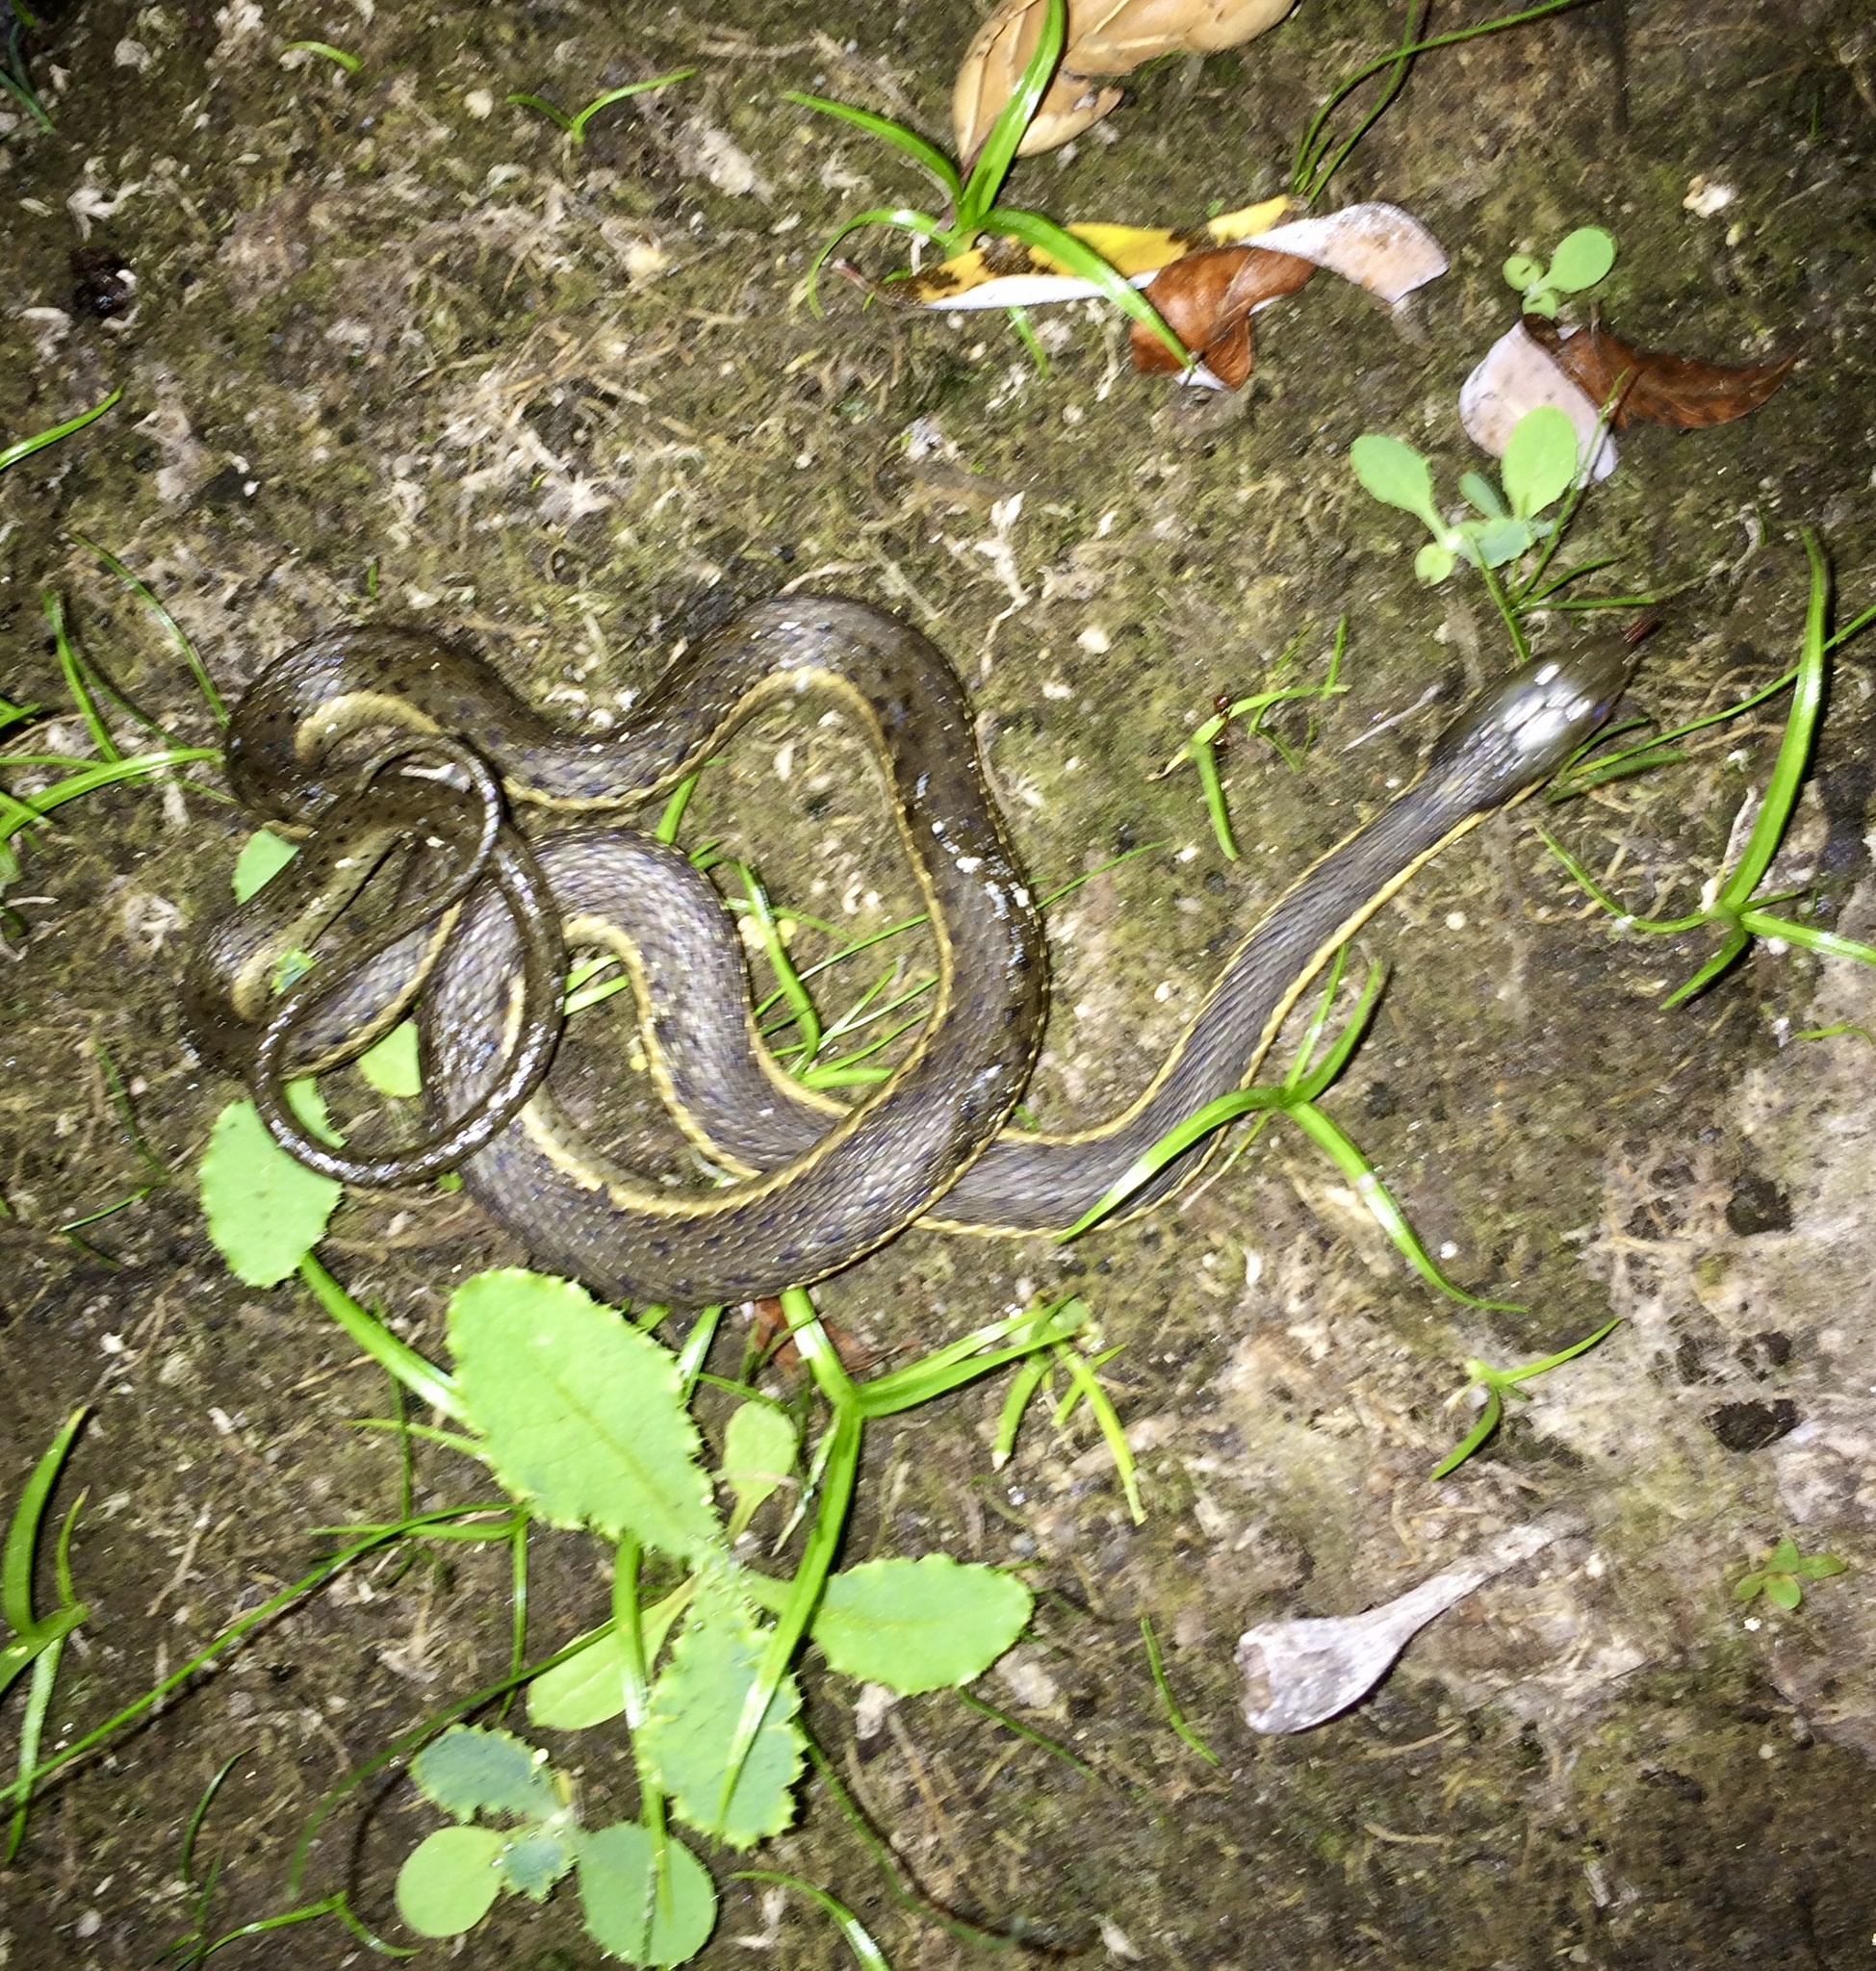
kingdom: Animalia
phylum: Chordata
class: Squamata
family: Colubridae
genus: Thamnophis
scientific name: Thamnophis hammondii
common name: Two-striped garter snake
